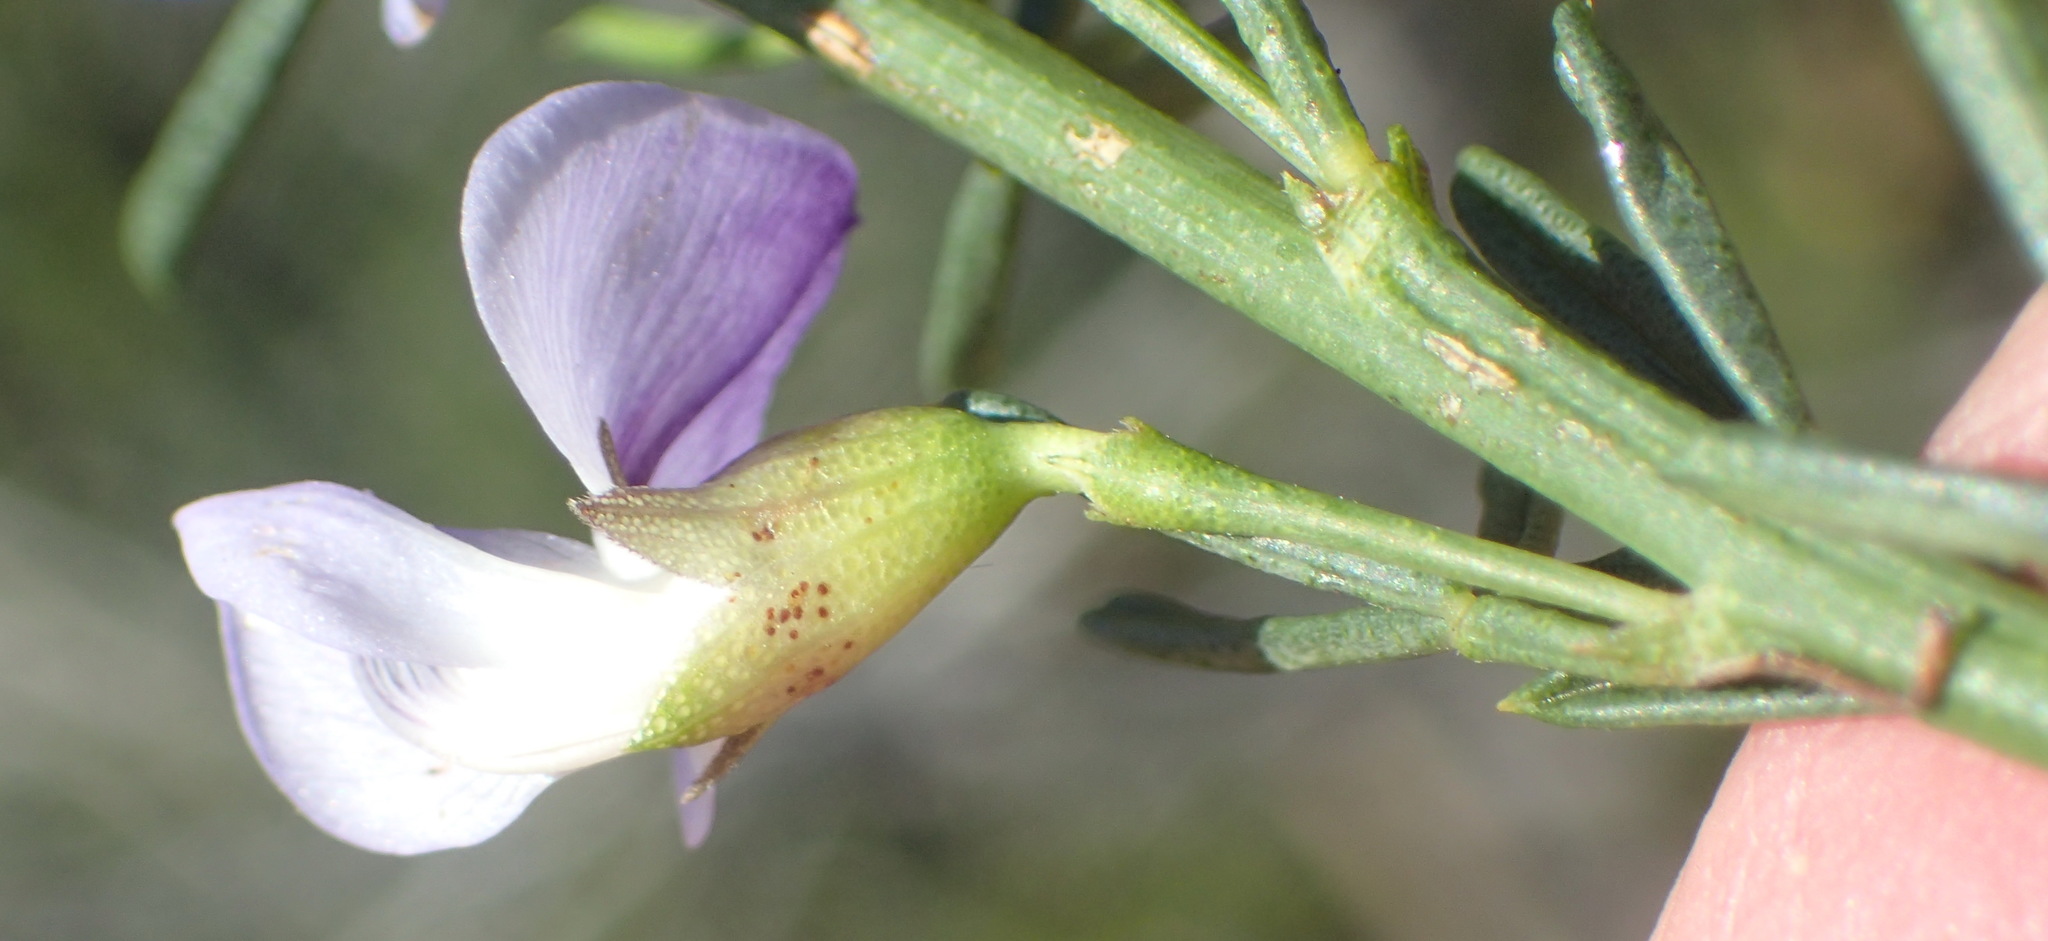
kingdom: Plantae
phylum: Tracheophyta
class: Magnoliopsida
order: Fabales
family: Fabaceae
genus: Psoralea
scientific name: Psoralea axillaris
